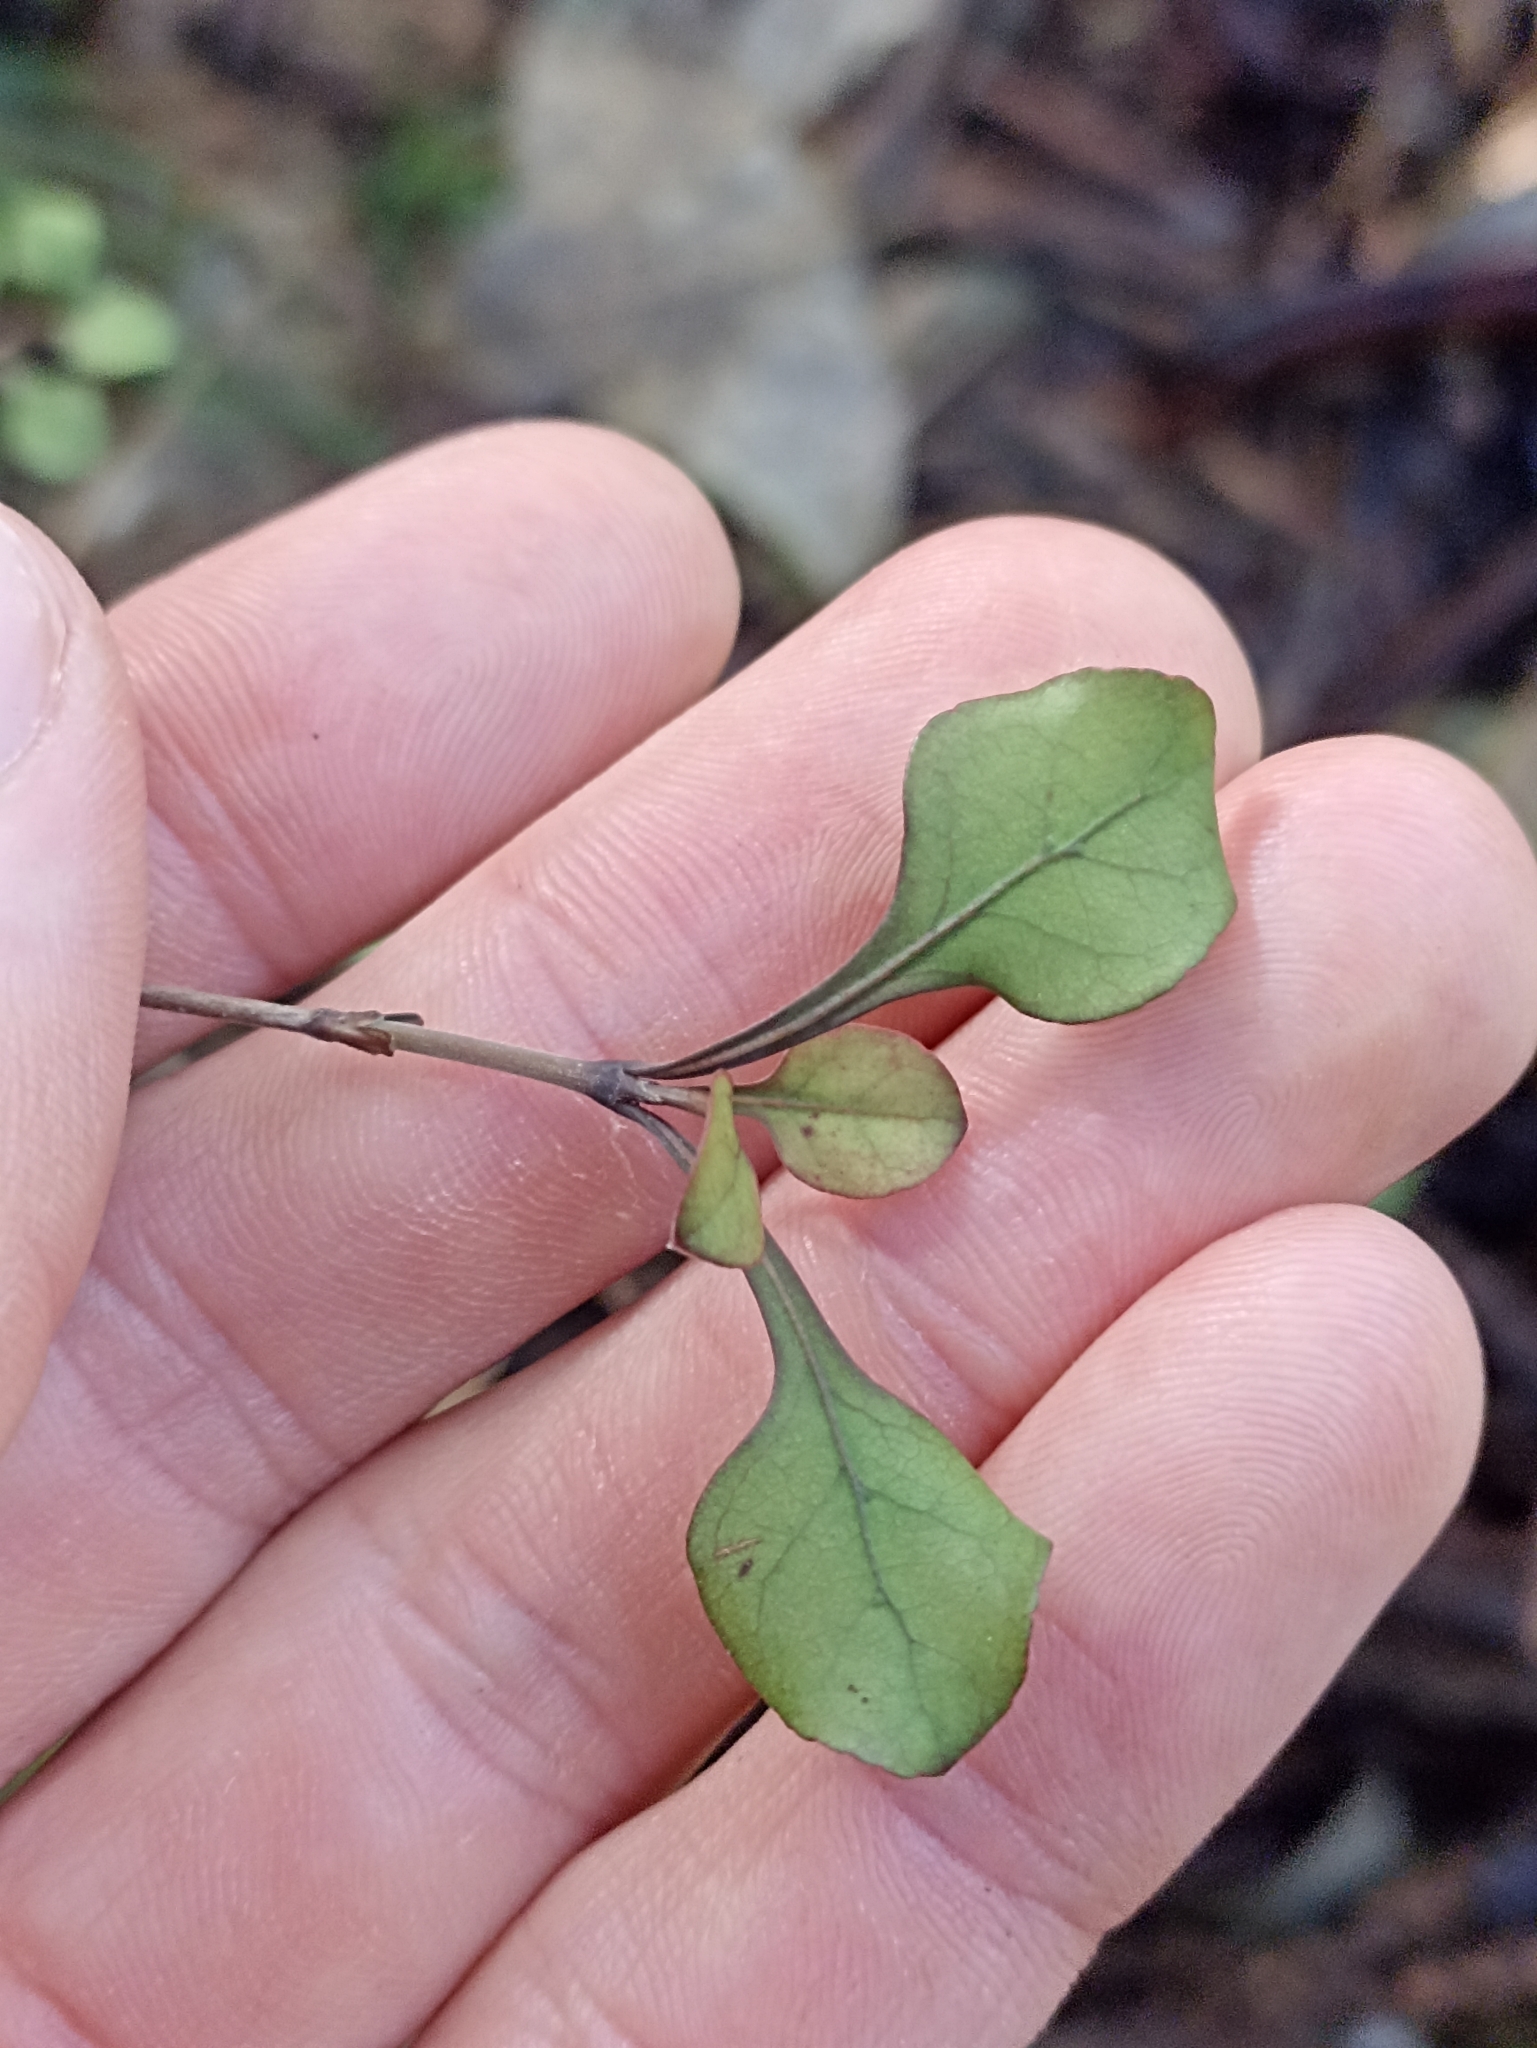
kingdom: Plantae
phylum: Tracheophyta
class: Magnoliopsida
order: Gentianales
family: Rubiaceae
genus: Coprosma
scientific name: Coprosma arborea
